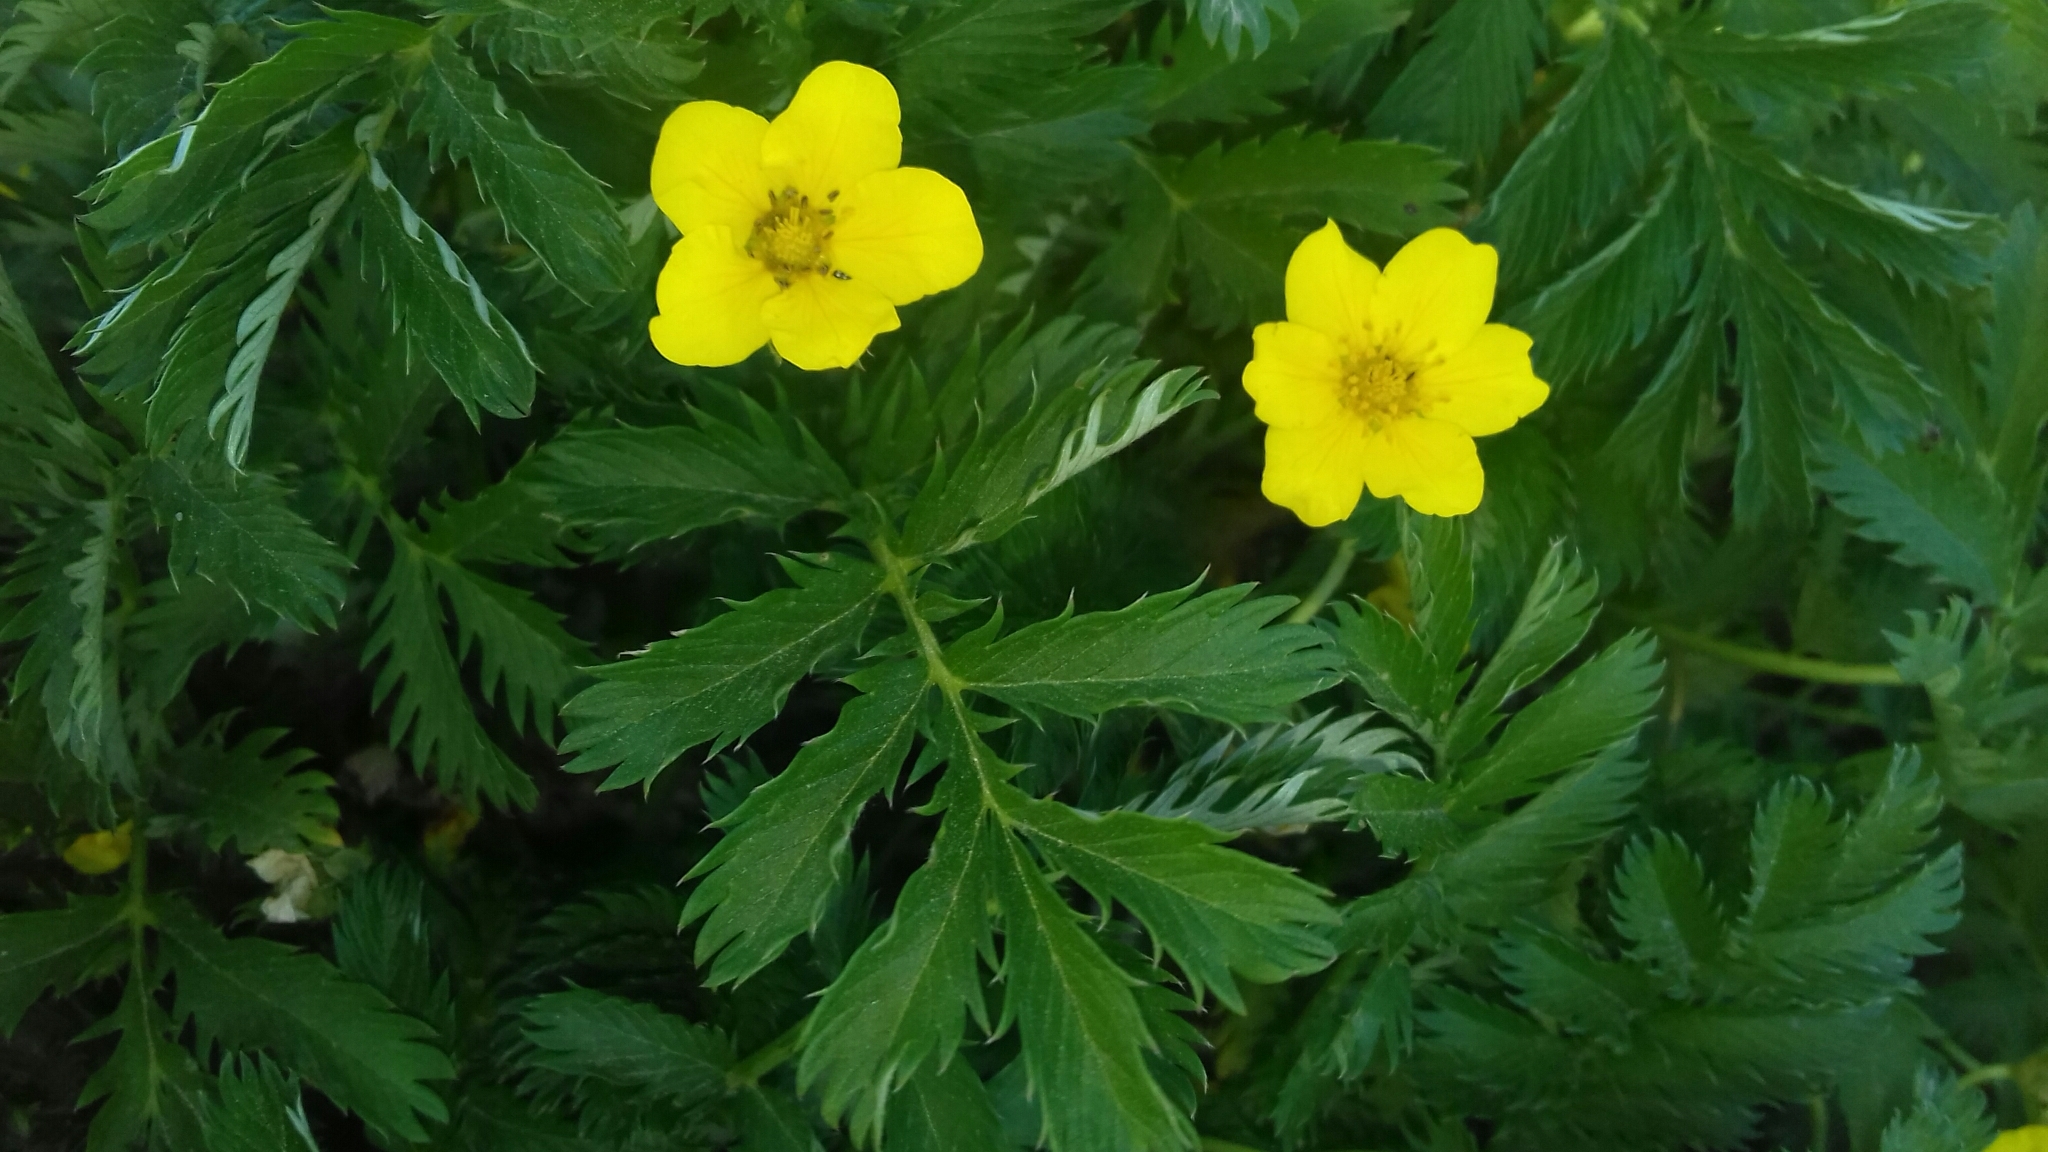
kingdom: Plantae
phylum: Tracheophyta
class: Magnoliopsida
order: Rosales
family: Rosaceae
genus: Argentina
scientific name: Argentina anserina
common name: Common silverweed
